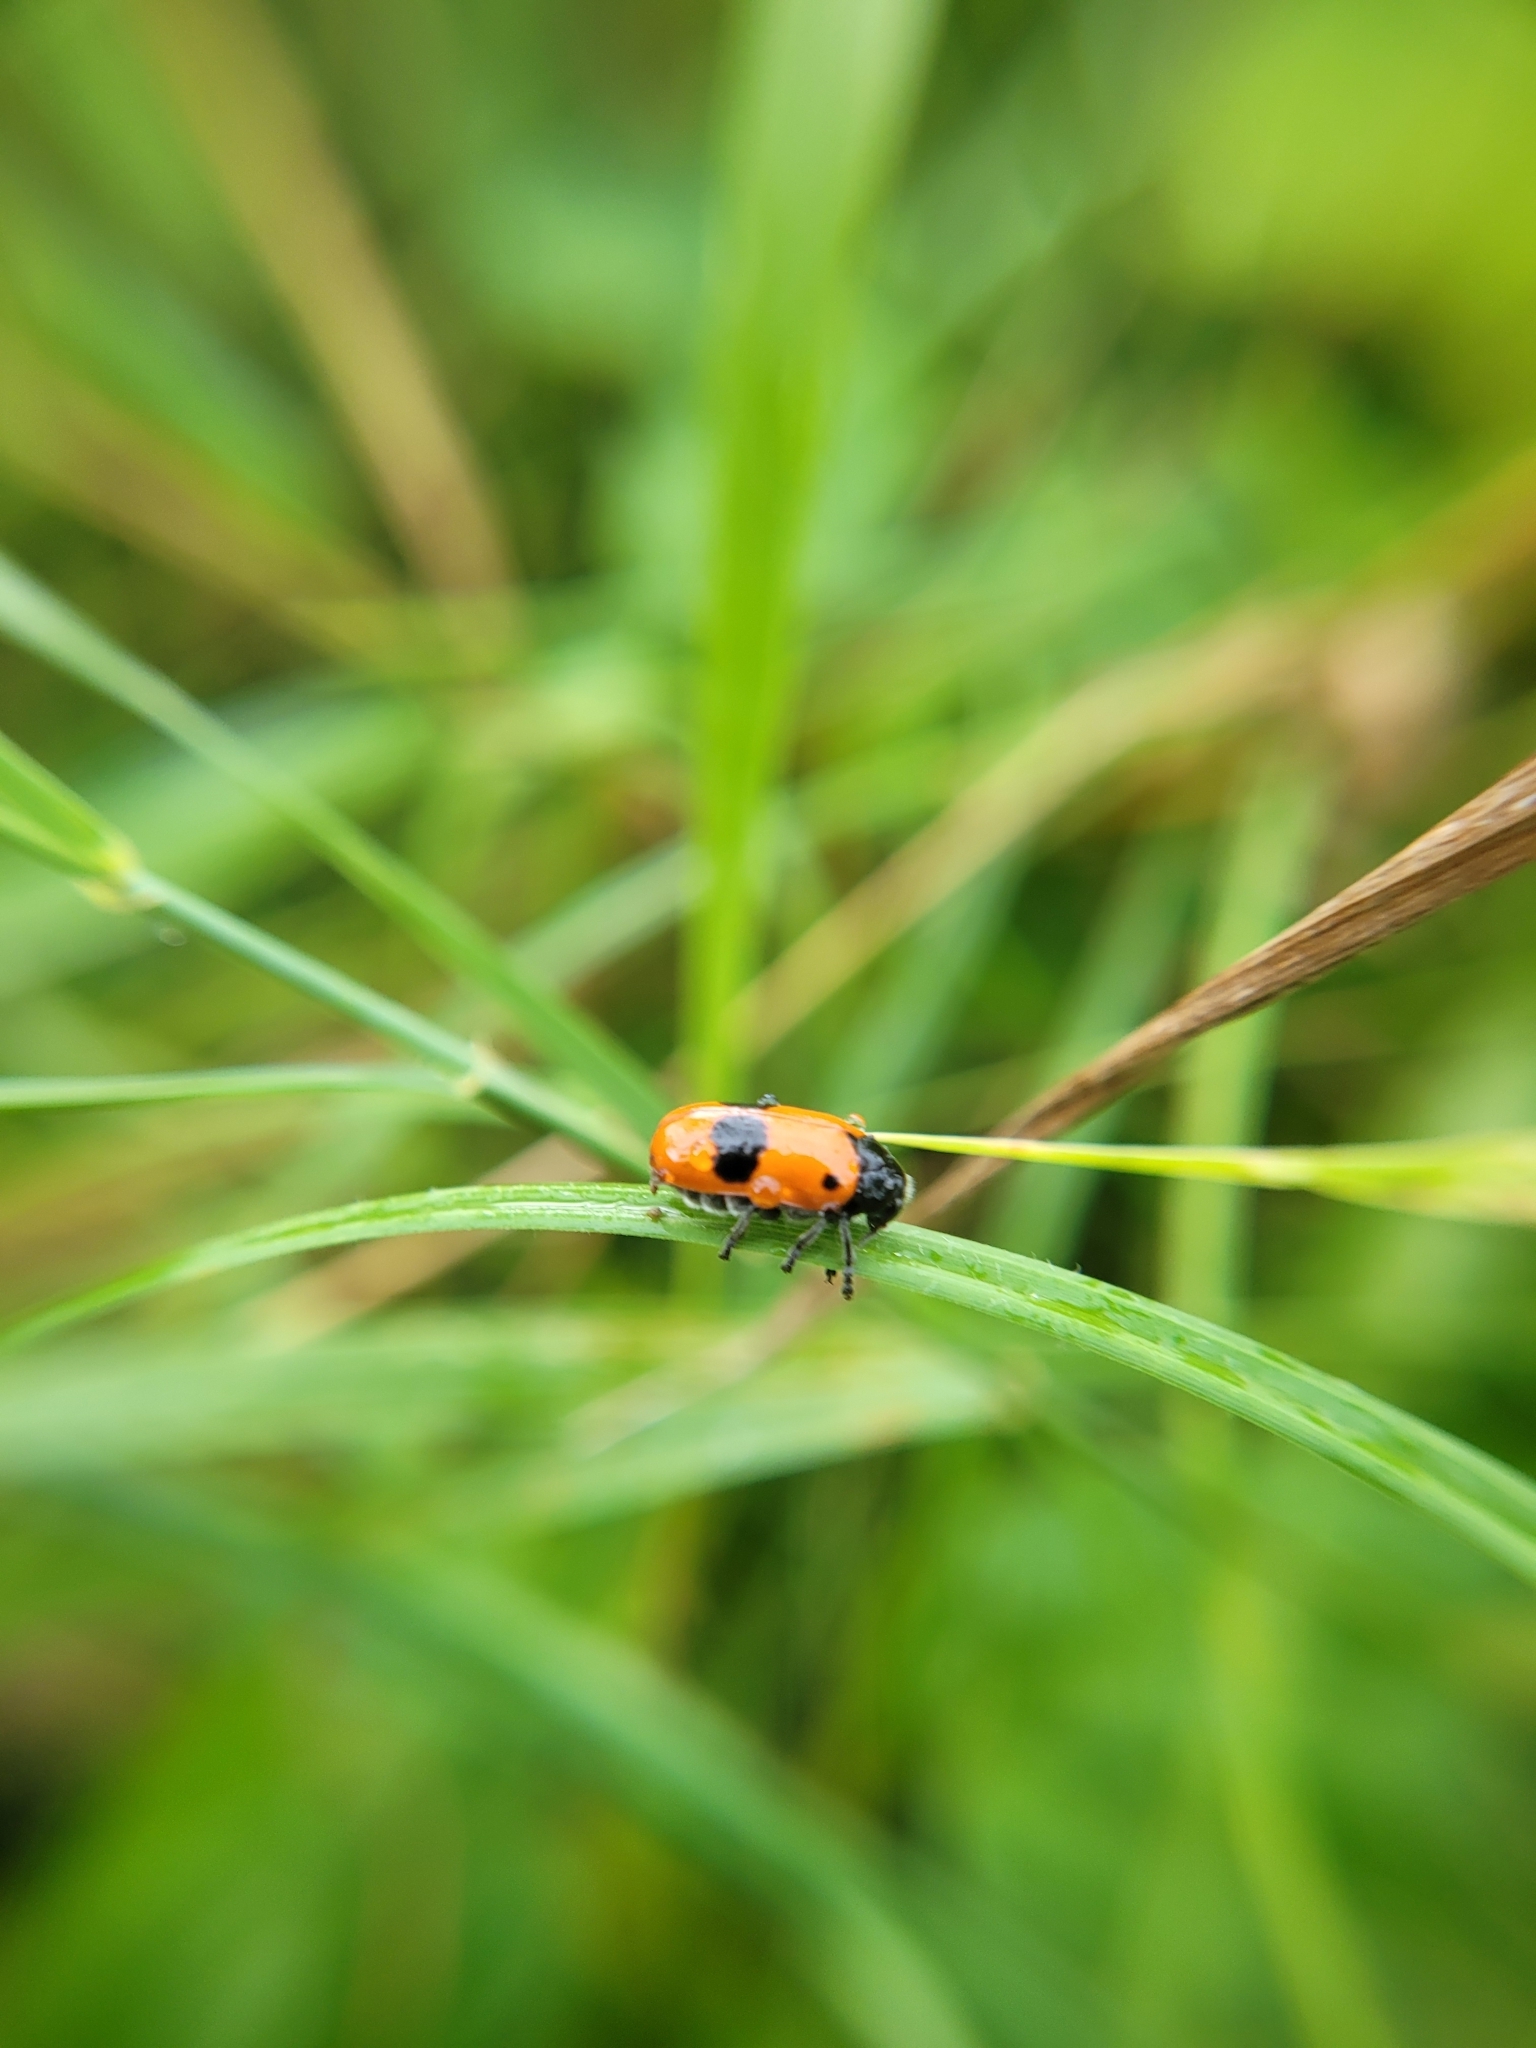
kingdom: Animalia
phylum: Arthropoda
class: Insecta
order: Coleoptera
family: Chrysomelidae
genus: Clytra
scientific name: Clytra laeviuscula
